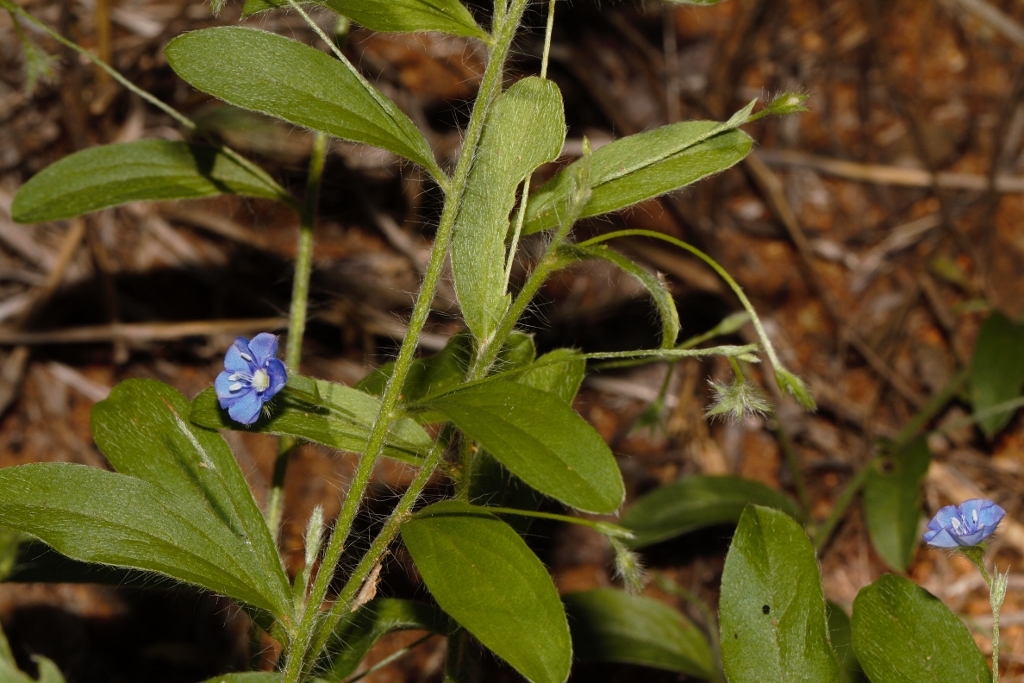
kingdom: Plantae
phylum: Tracheophyta
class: Magnoliopsida
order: Solanales
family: Convolvulaceae
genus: Evolvulus
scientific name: Evolvulus alsinoides
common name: Slender dwarf morning-glory
